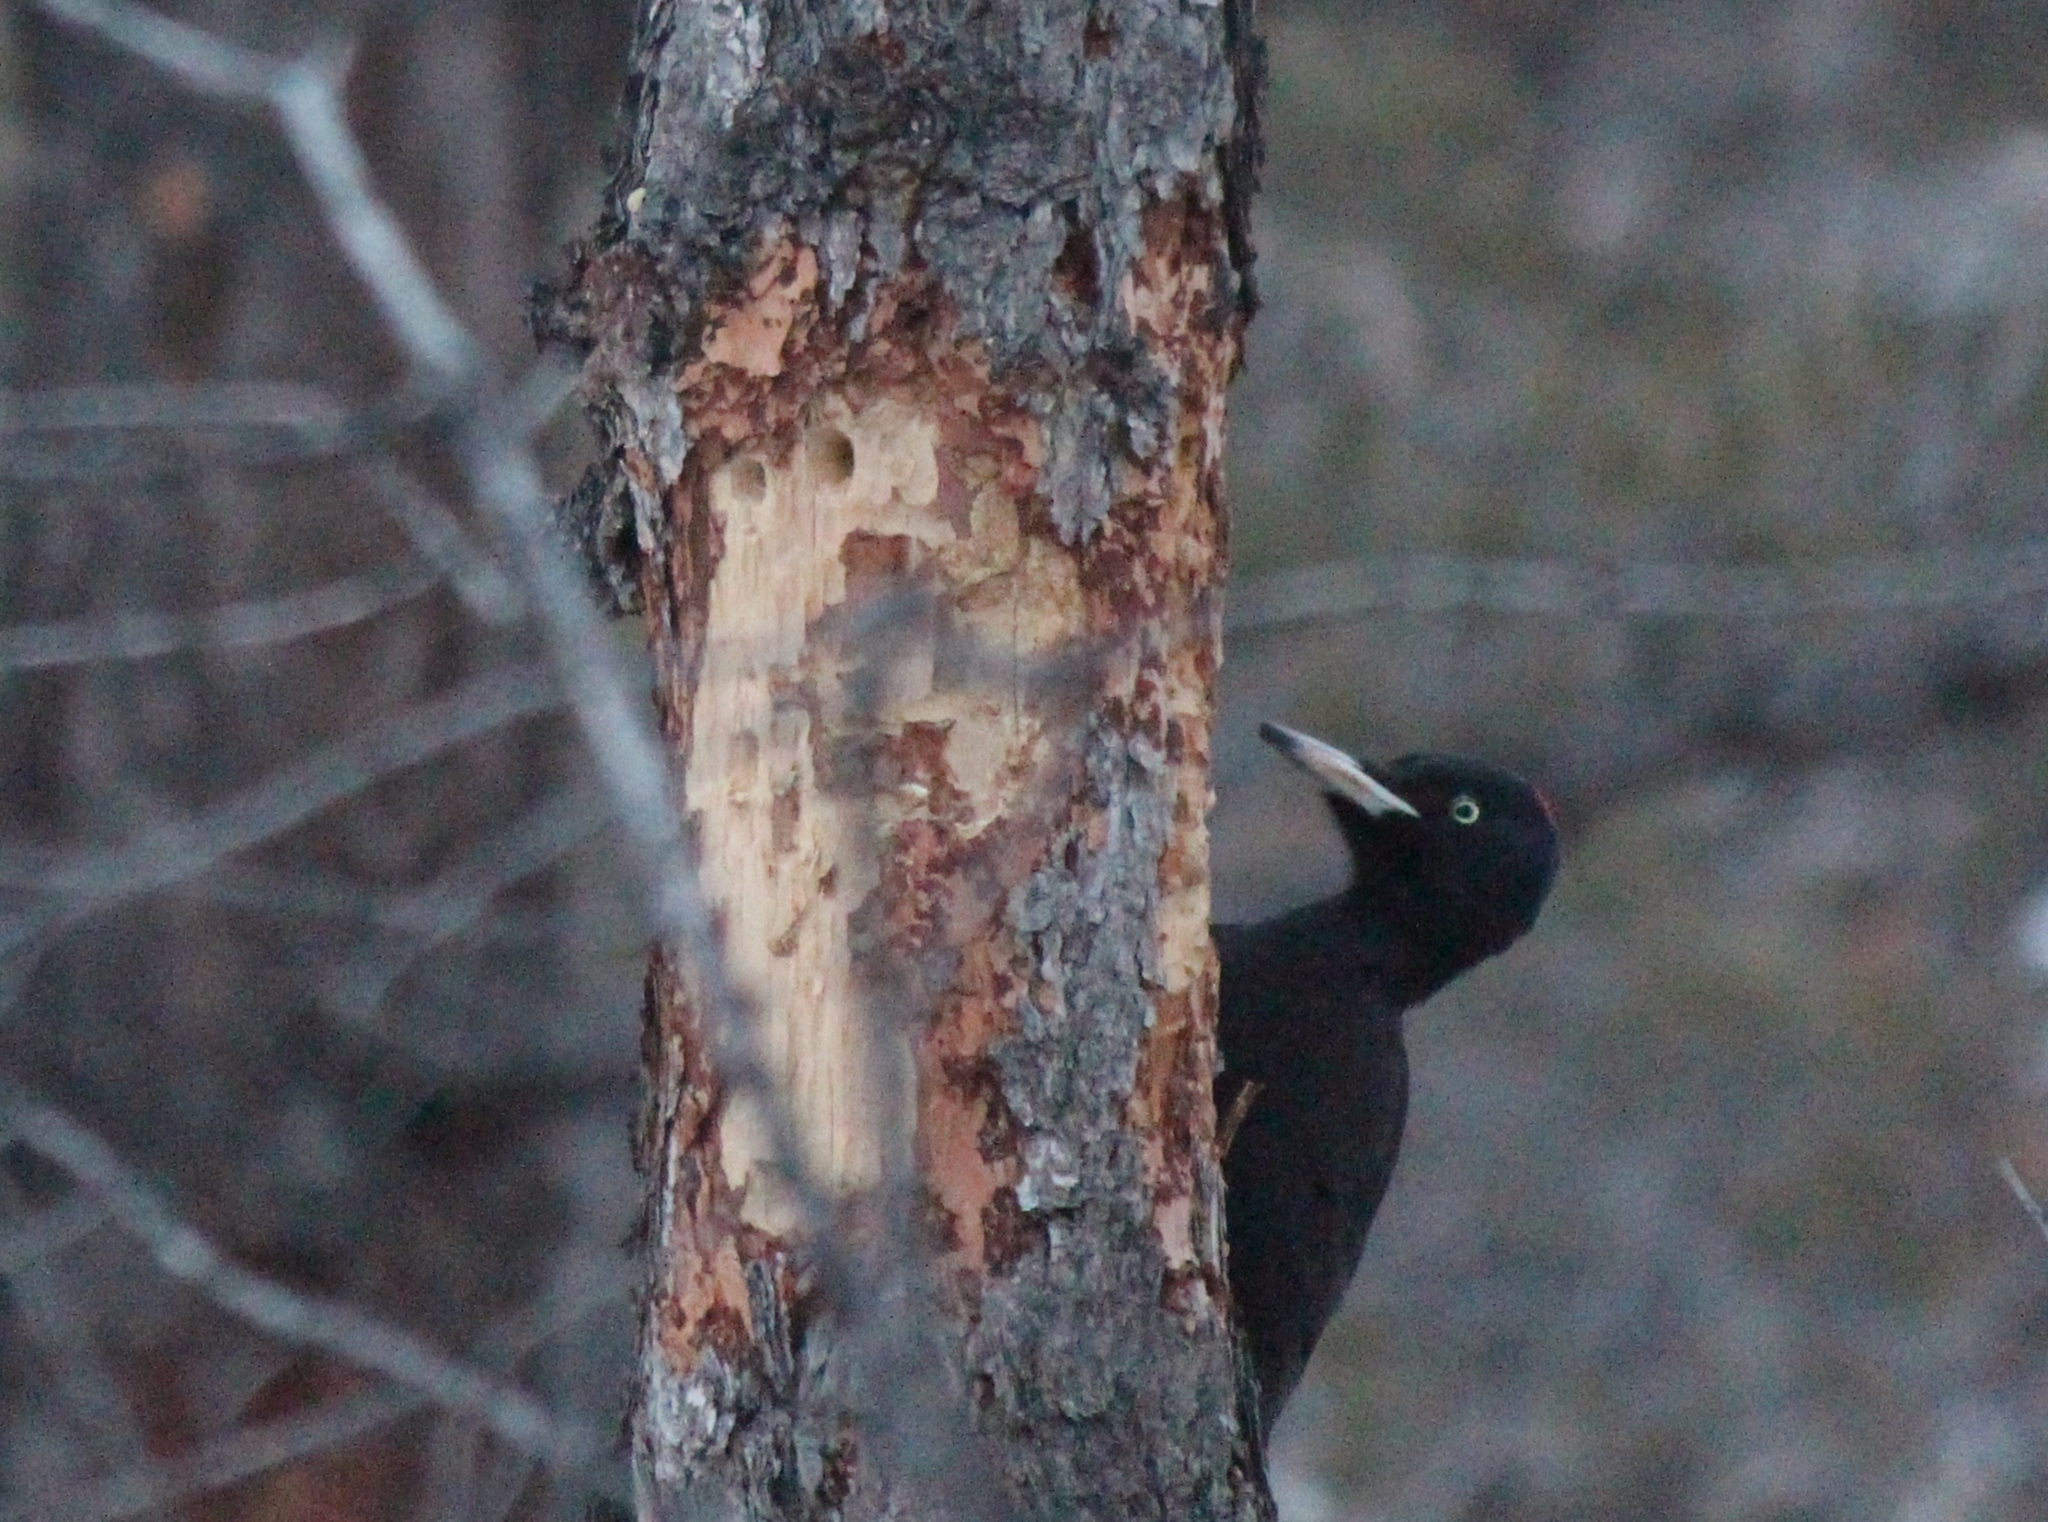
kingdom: Animalia
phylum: Chordata
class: Aves
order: Piciformes
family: Picidae
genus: Dryocopus
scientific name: Dryocopus martius
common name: Black woodpecker
